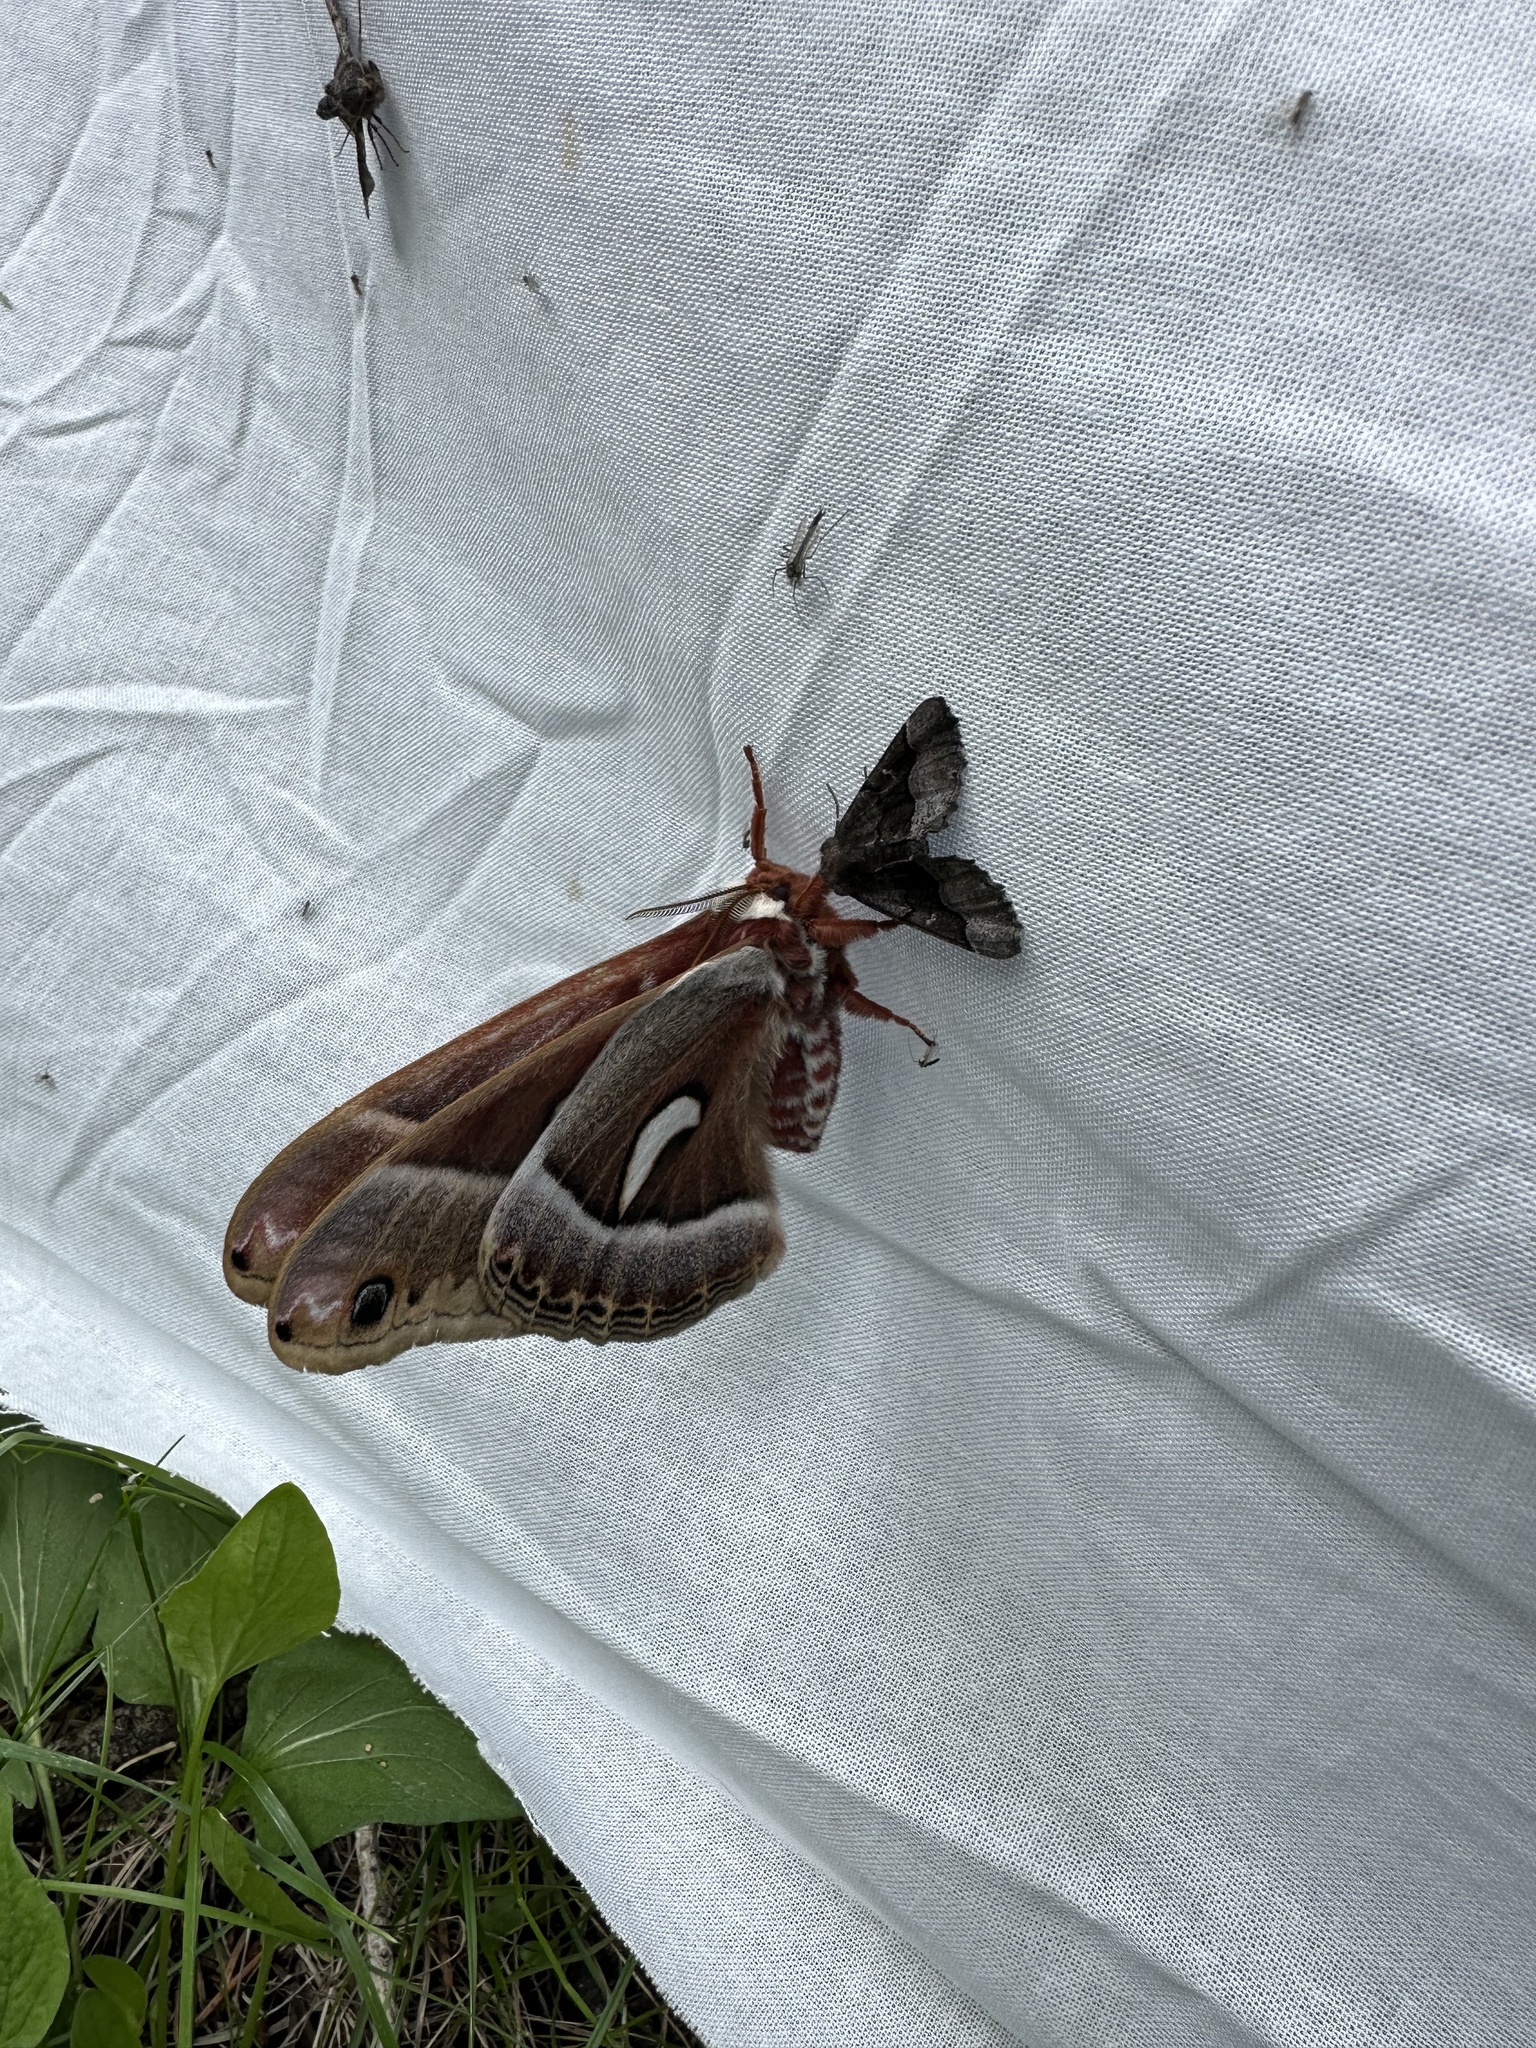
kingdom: Animalia
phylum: Arthropoda
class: Insecta
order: Lepidoptera
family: Saturniidae
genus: Hyalophora
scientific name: Hyalophora euryalus
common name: Ceanothus silkmoth
